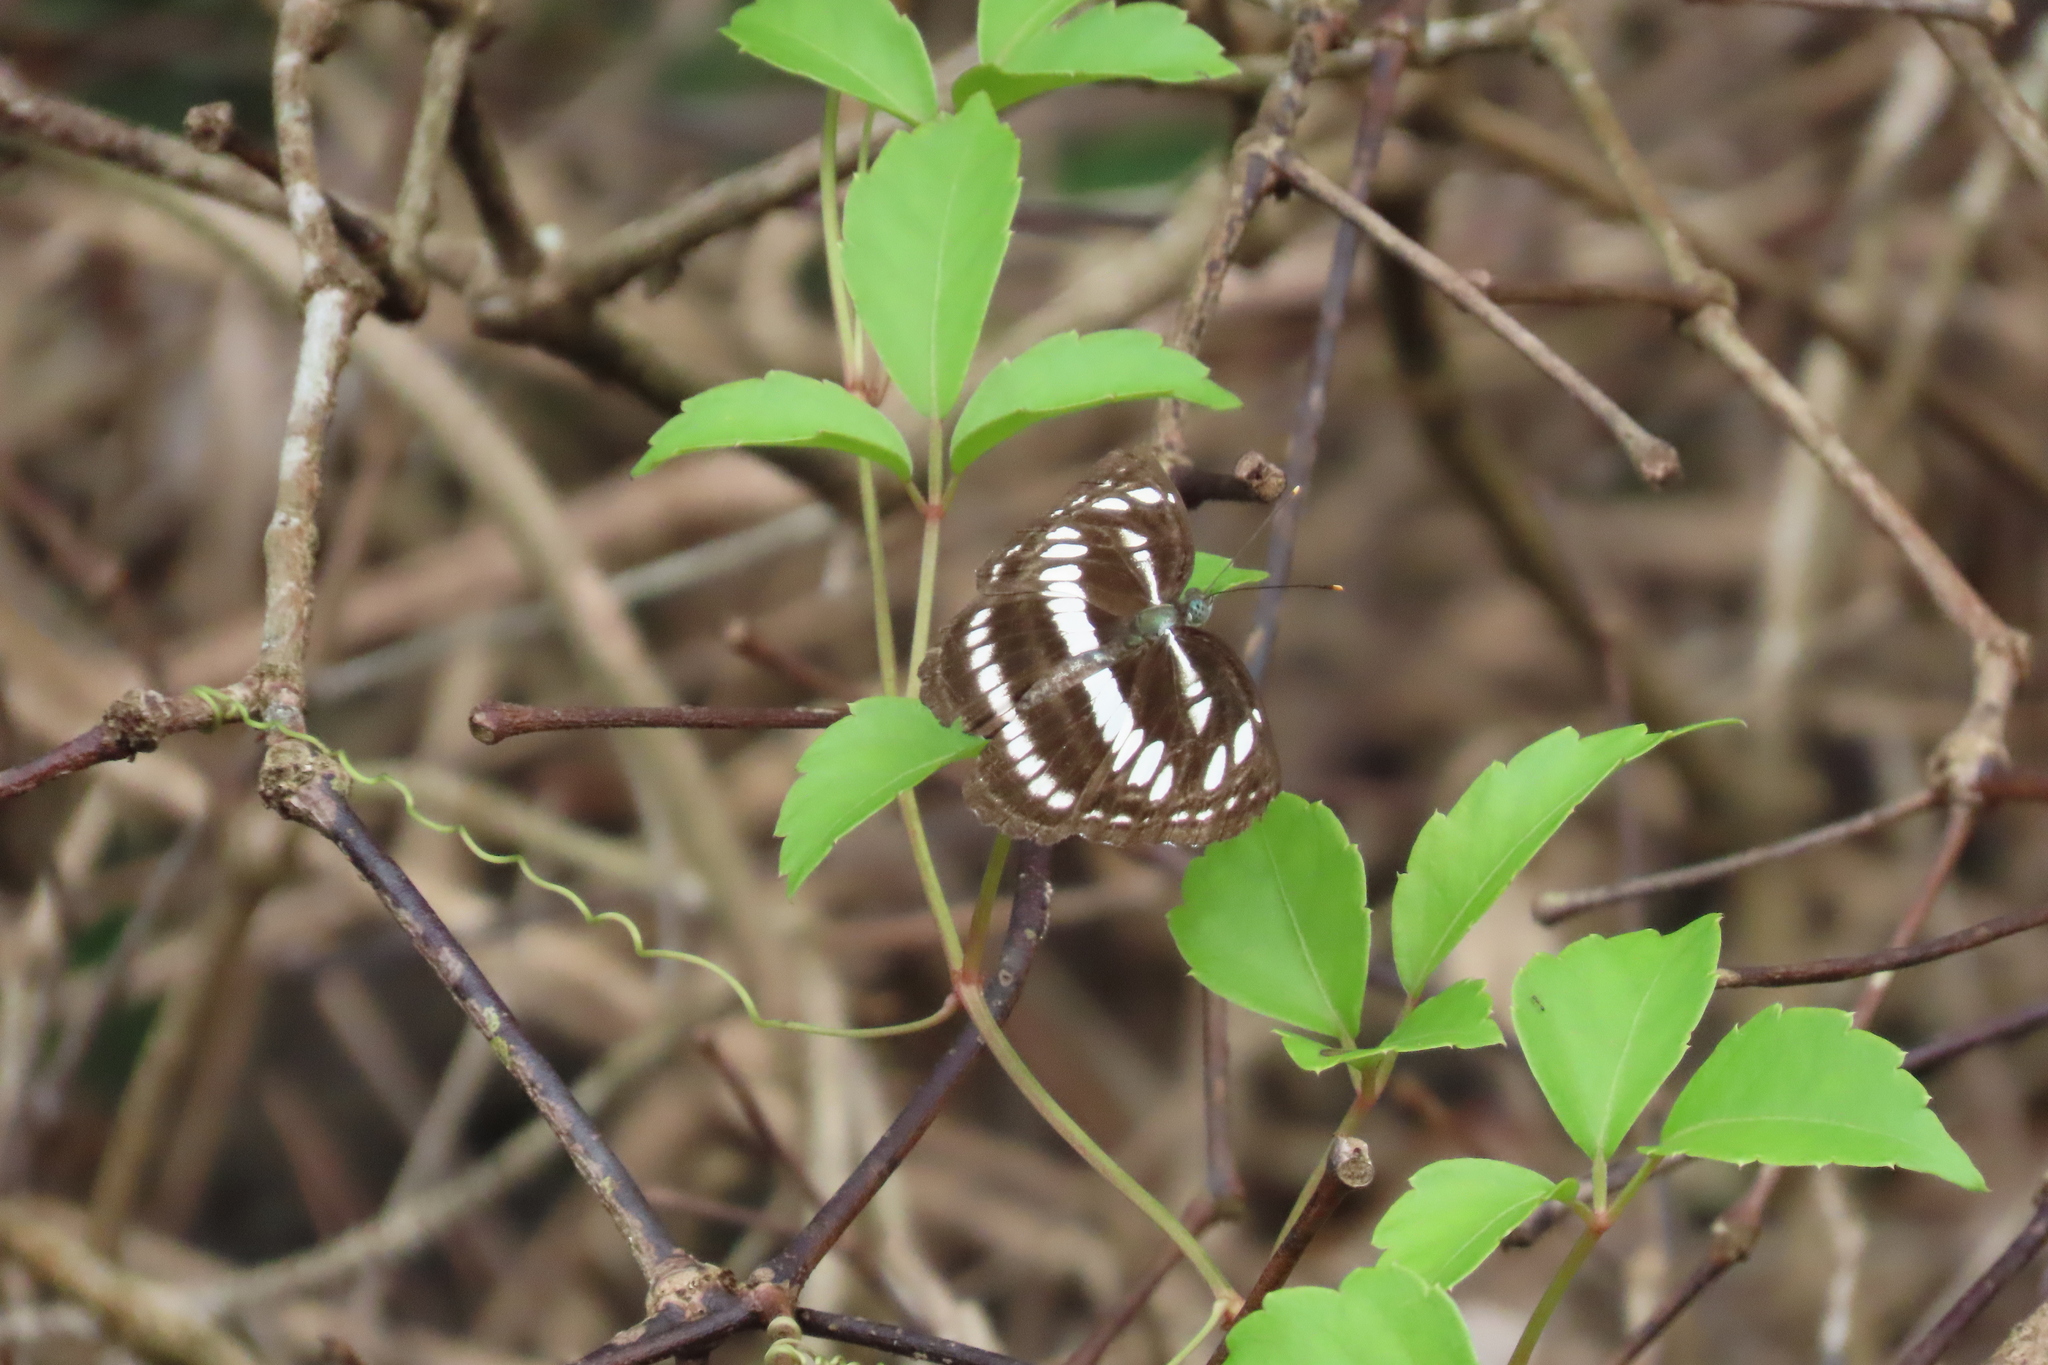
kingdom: Animalia
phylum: Arthropoda
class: Insecta
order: Lepidoptera
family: Nymphalidae
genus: Neptis
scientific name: Neptis hylas
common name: Common sailer
